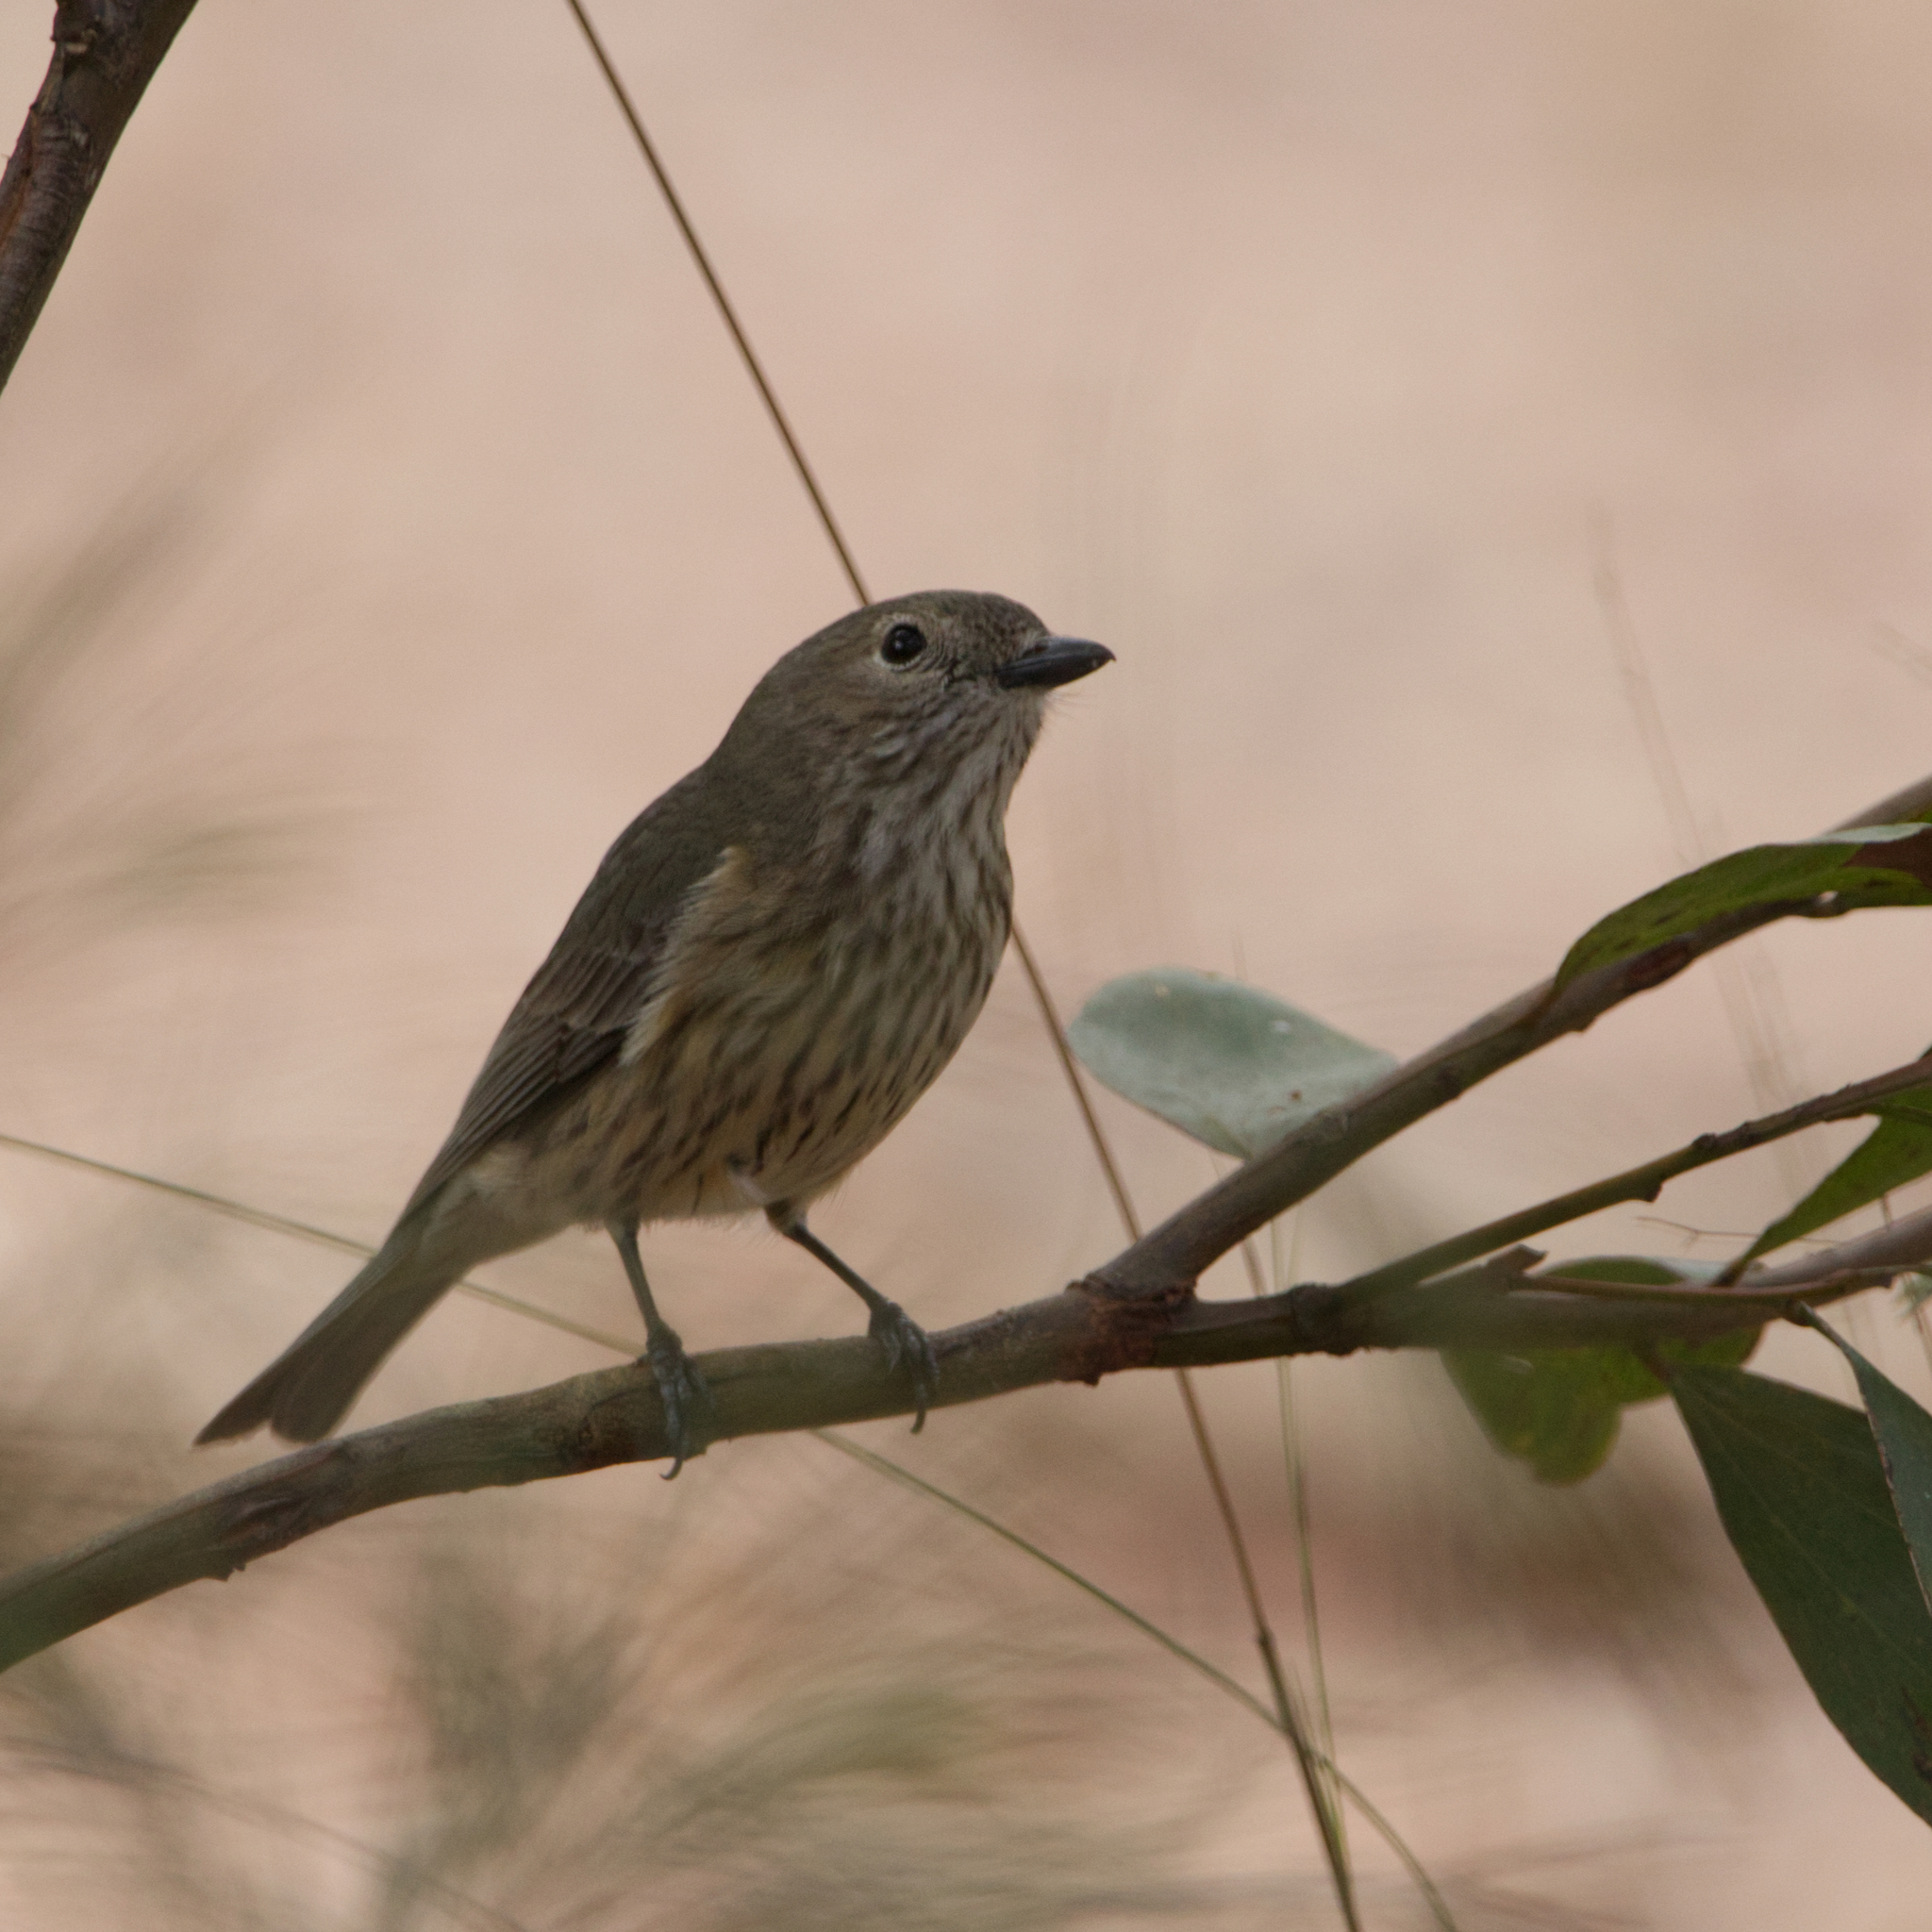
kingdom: Animalia
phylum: Chordata
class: Aves
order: Passeriformes
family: Pachycephalidae
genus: Pachycephala
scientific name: Pachycephala rufiventris
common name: Rufous whistler
